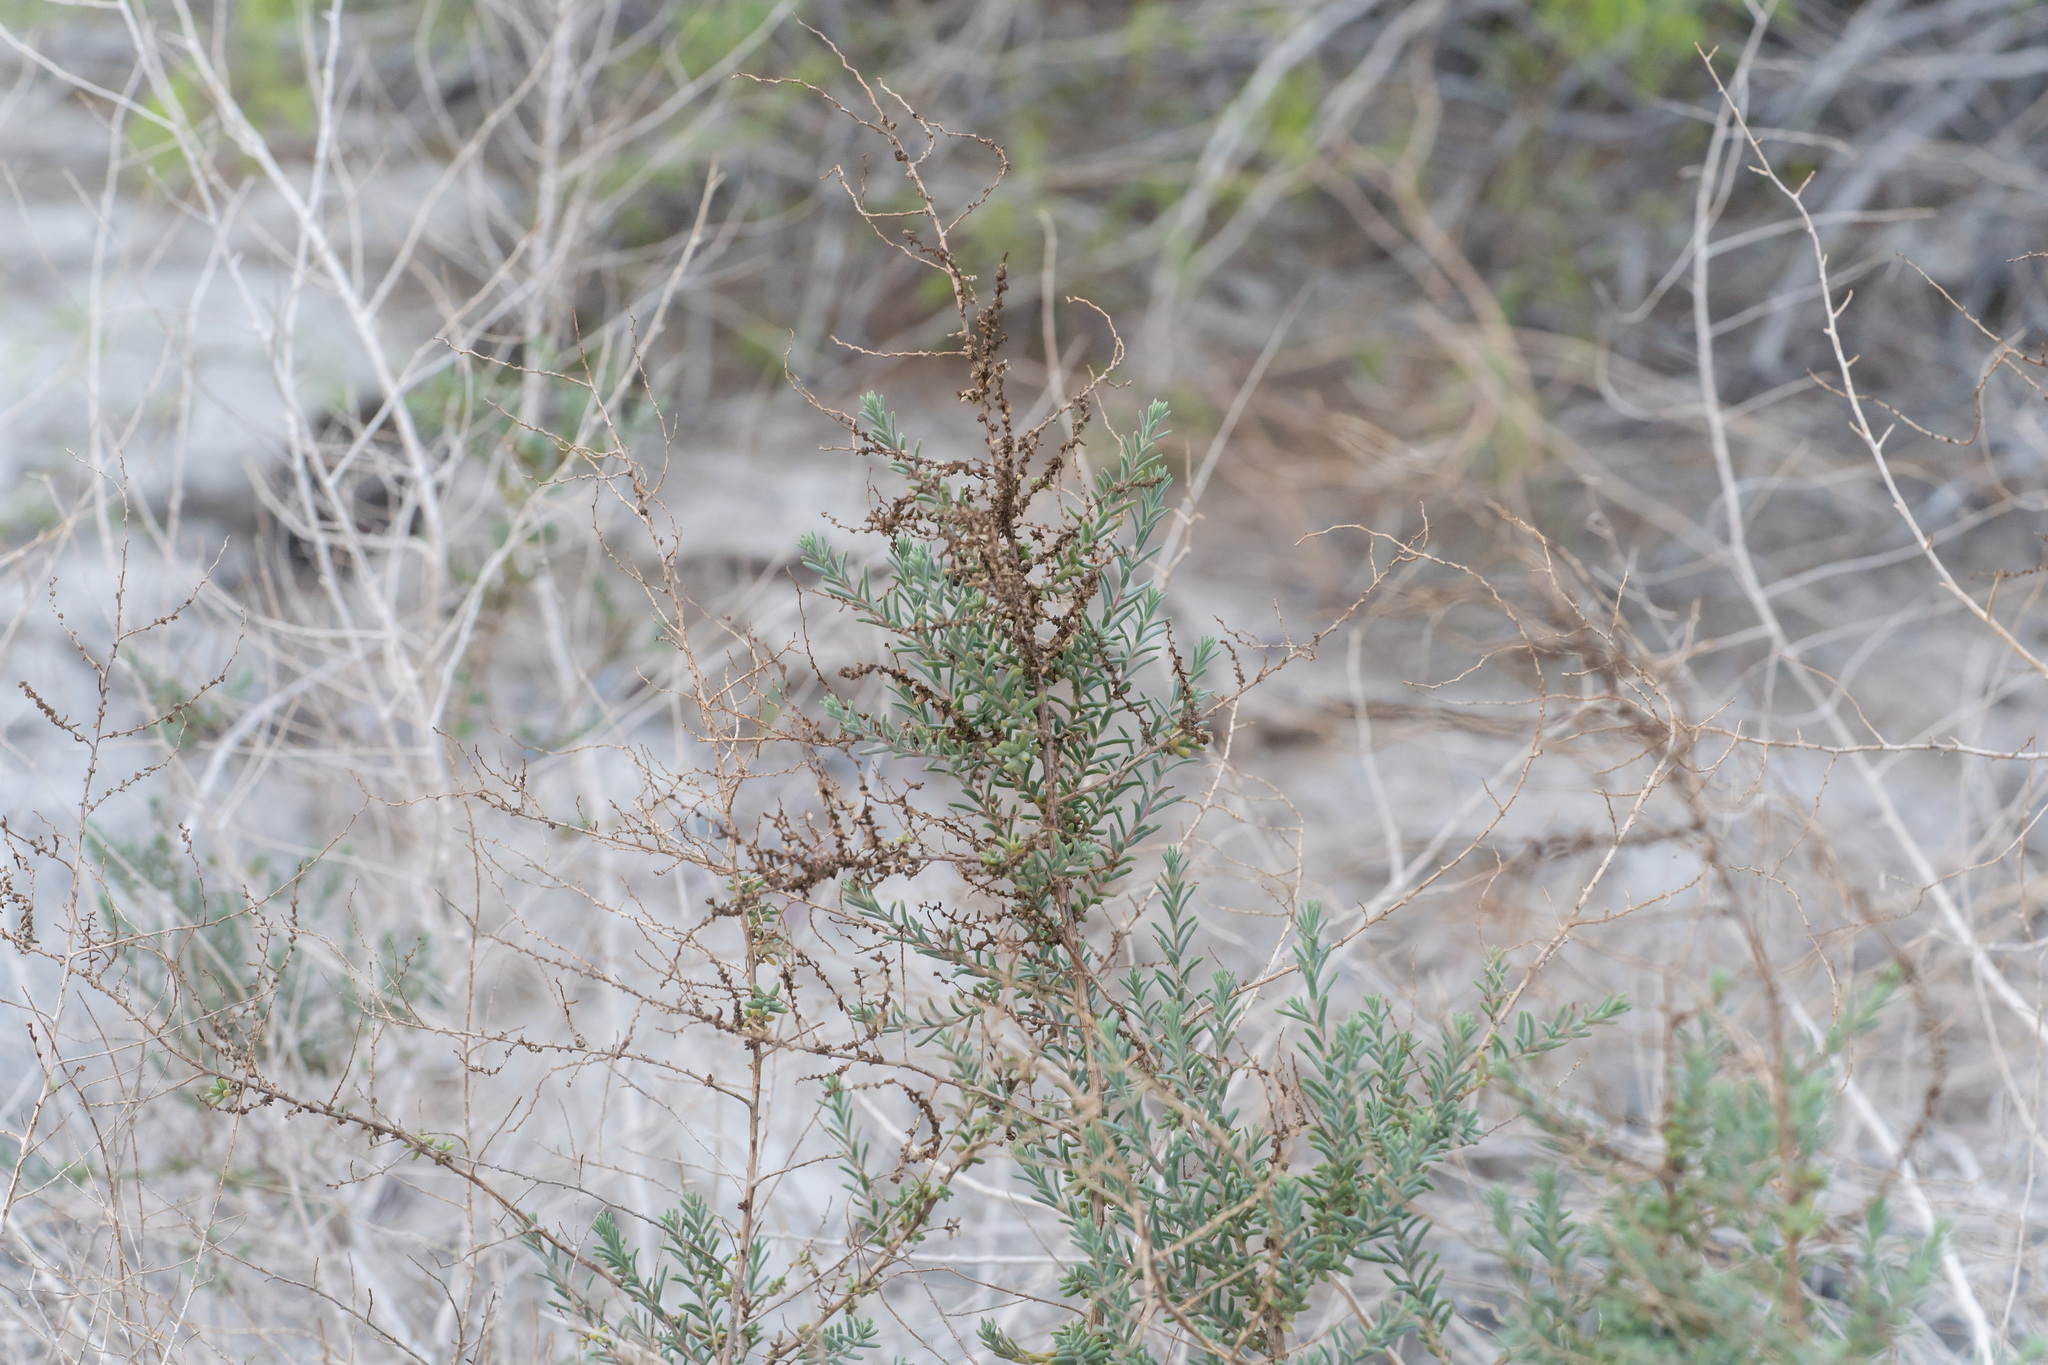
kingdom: Plantae
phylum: Tracheophyta
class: Magnoliopsida
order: Caryophyllales
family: Amaranthaceae
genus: Suaeda
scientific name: Suaeda nigra
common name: Bush seepweed
